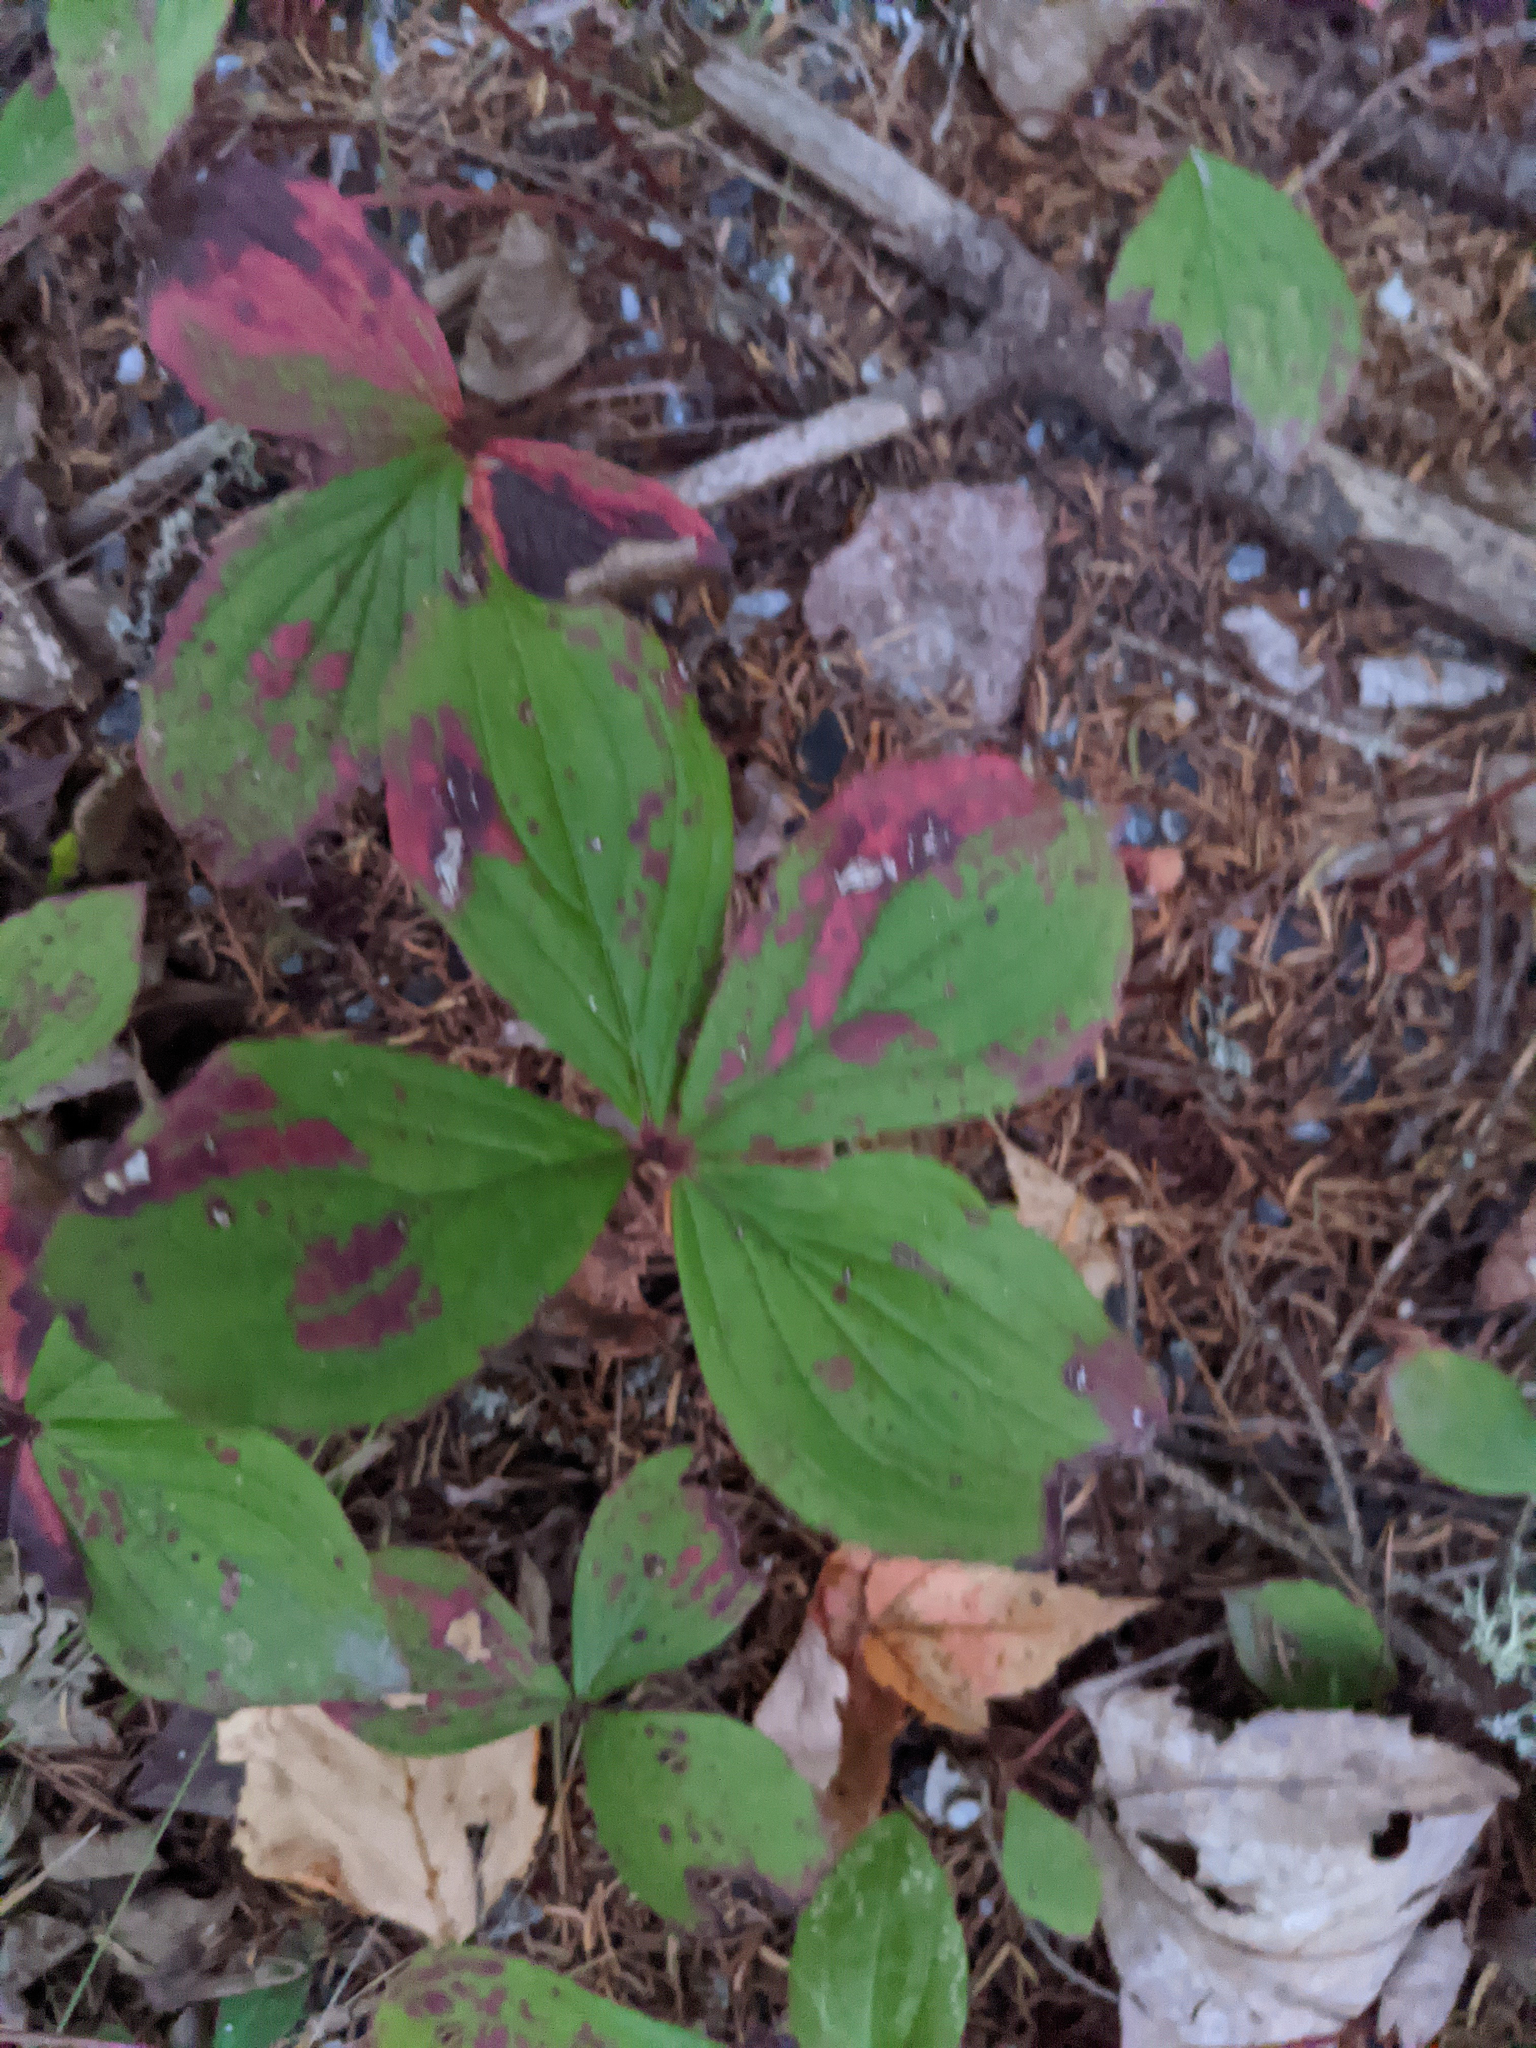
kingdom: Plantae
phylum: Tracheophyta
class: Magnoliopsida
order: Cornales
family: Cornaceae
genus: Cornus
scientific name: Cornus canadensis
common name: Creeping dogwood
